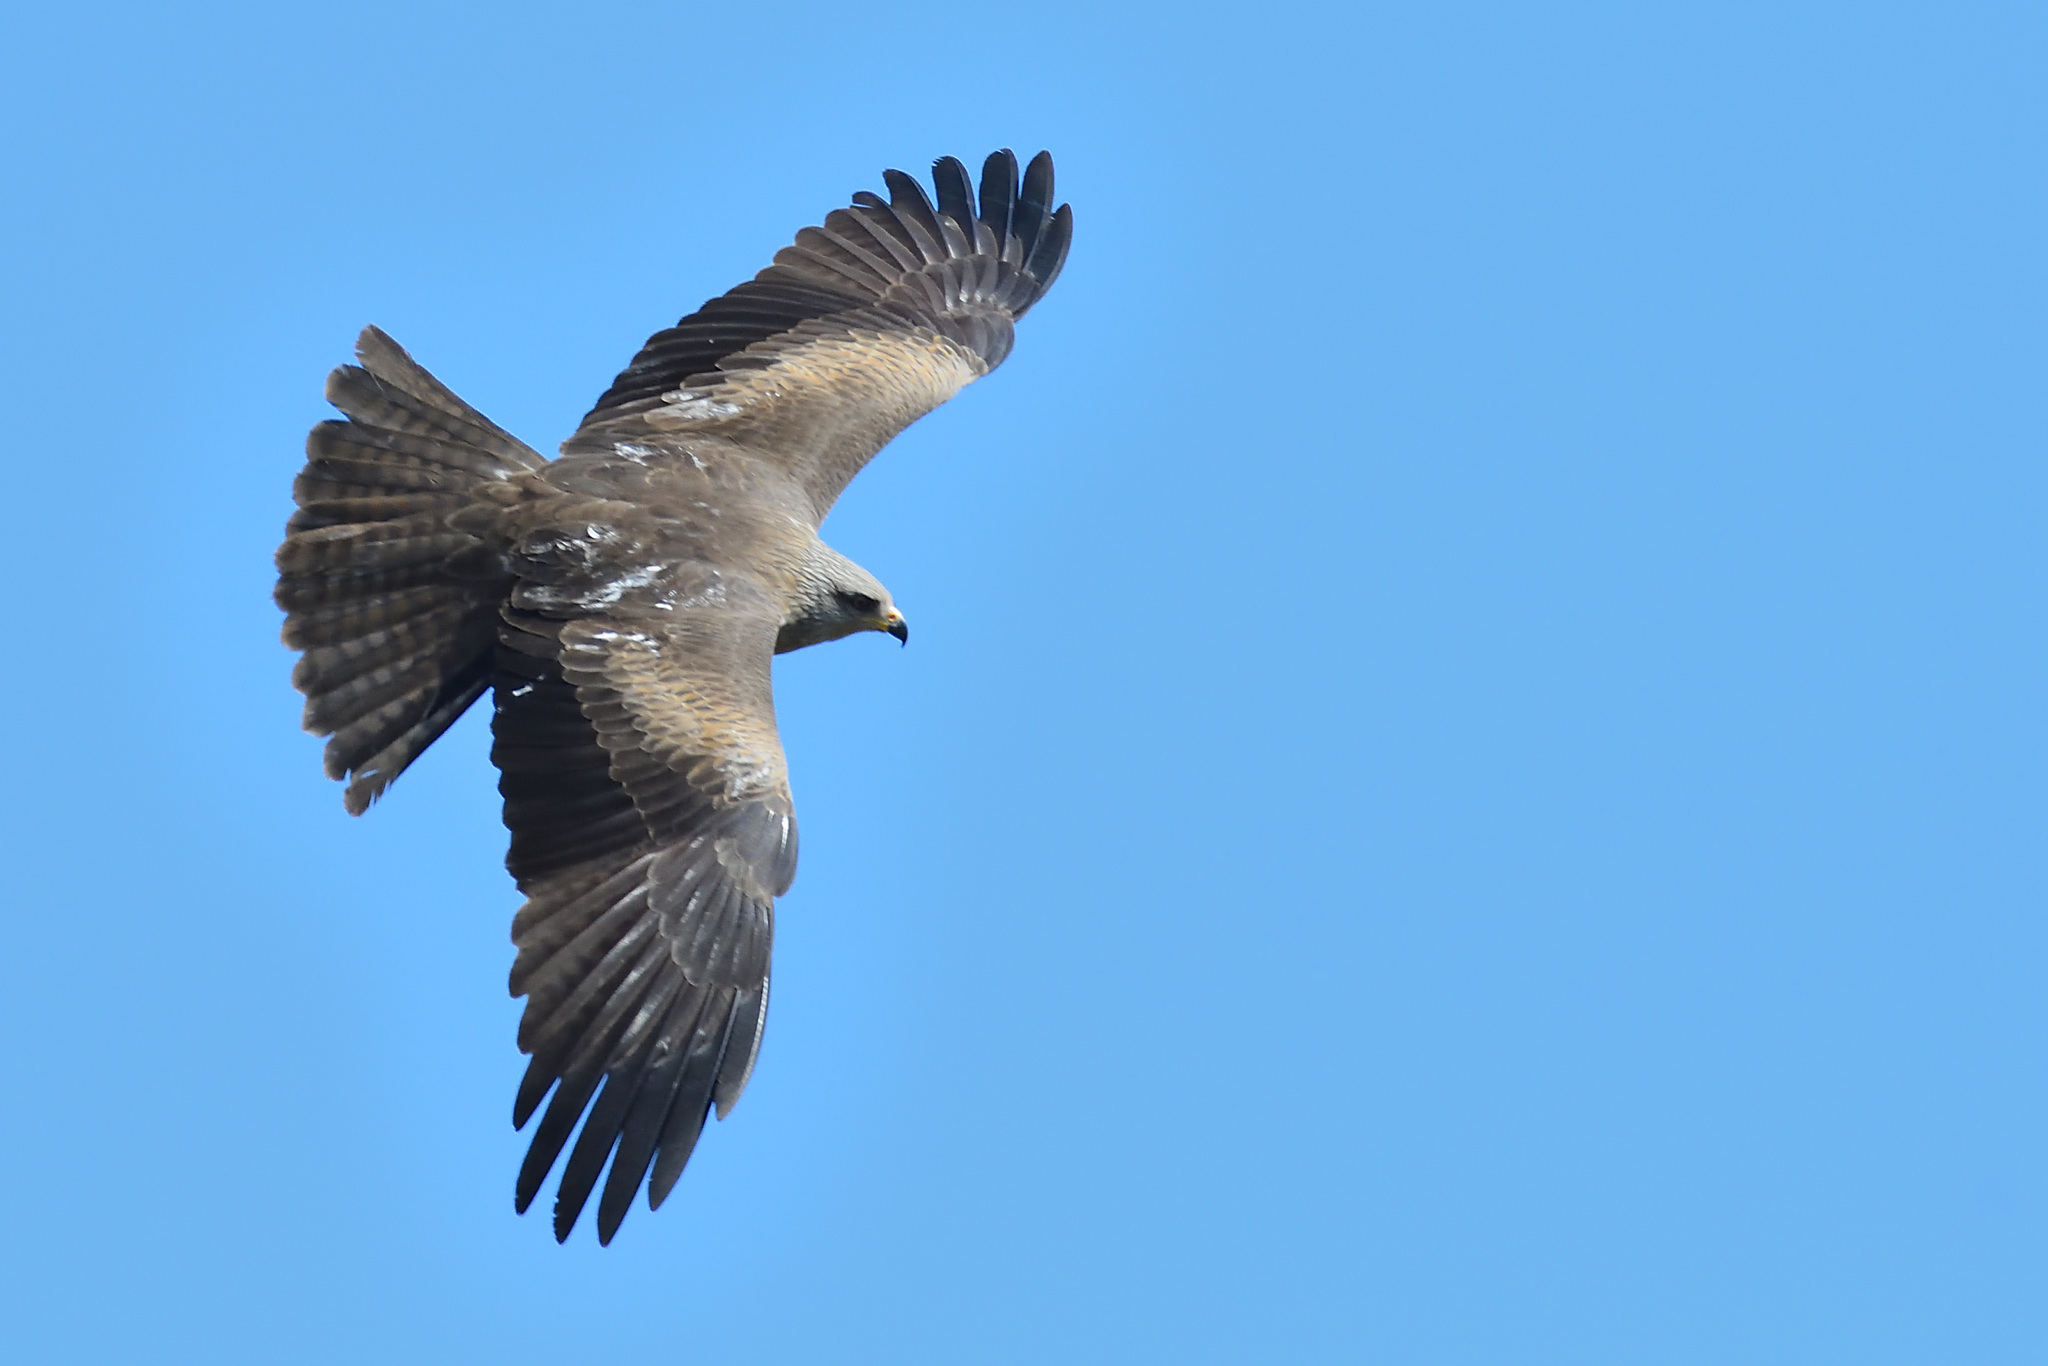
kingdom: Animalia
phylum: Chordata
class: Aves
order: Accipitriformes
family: Accipitridae
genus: Milvus
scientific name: Milvus migrans
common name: Black kite
